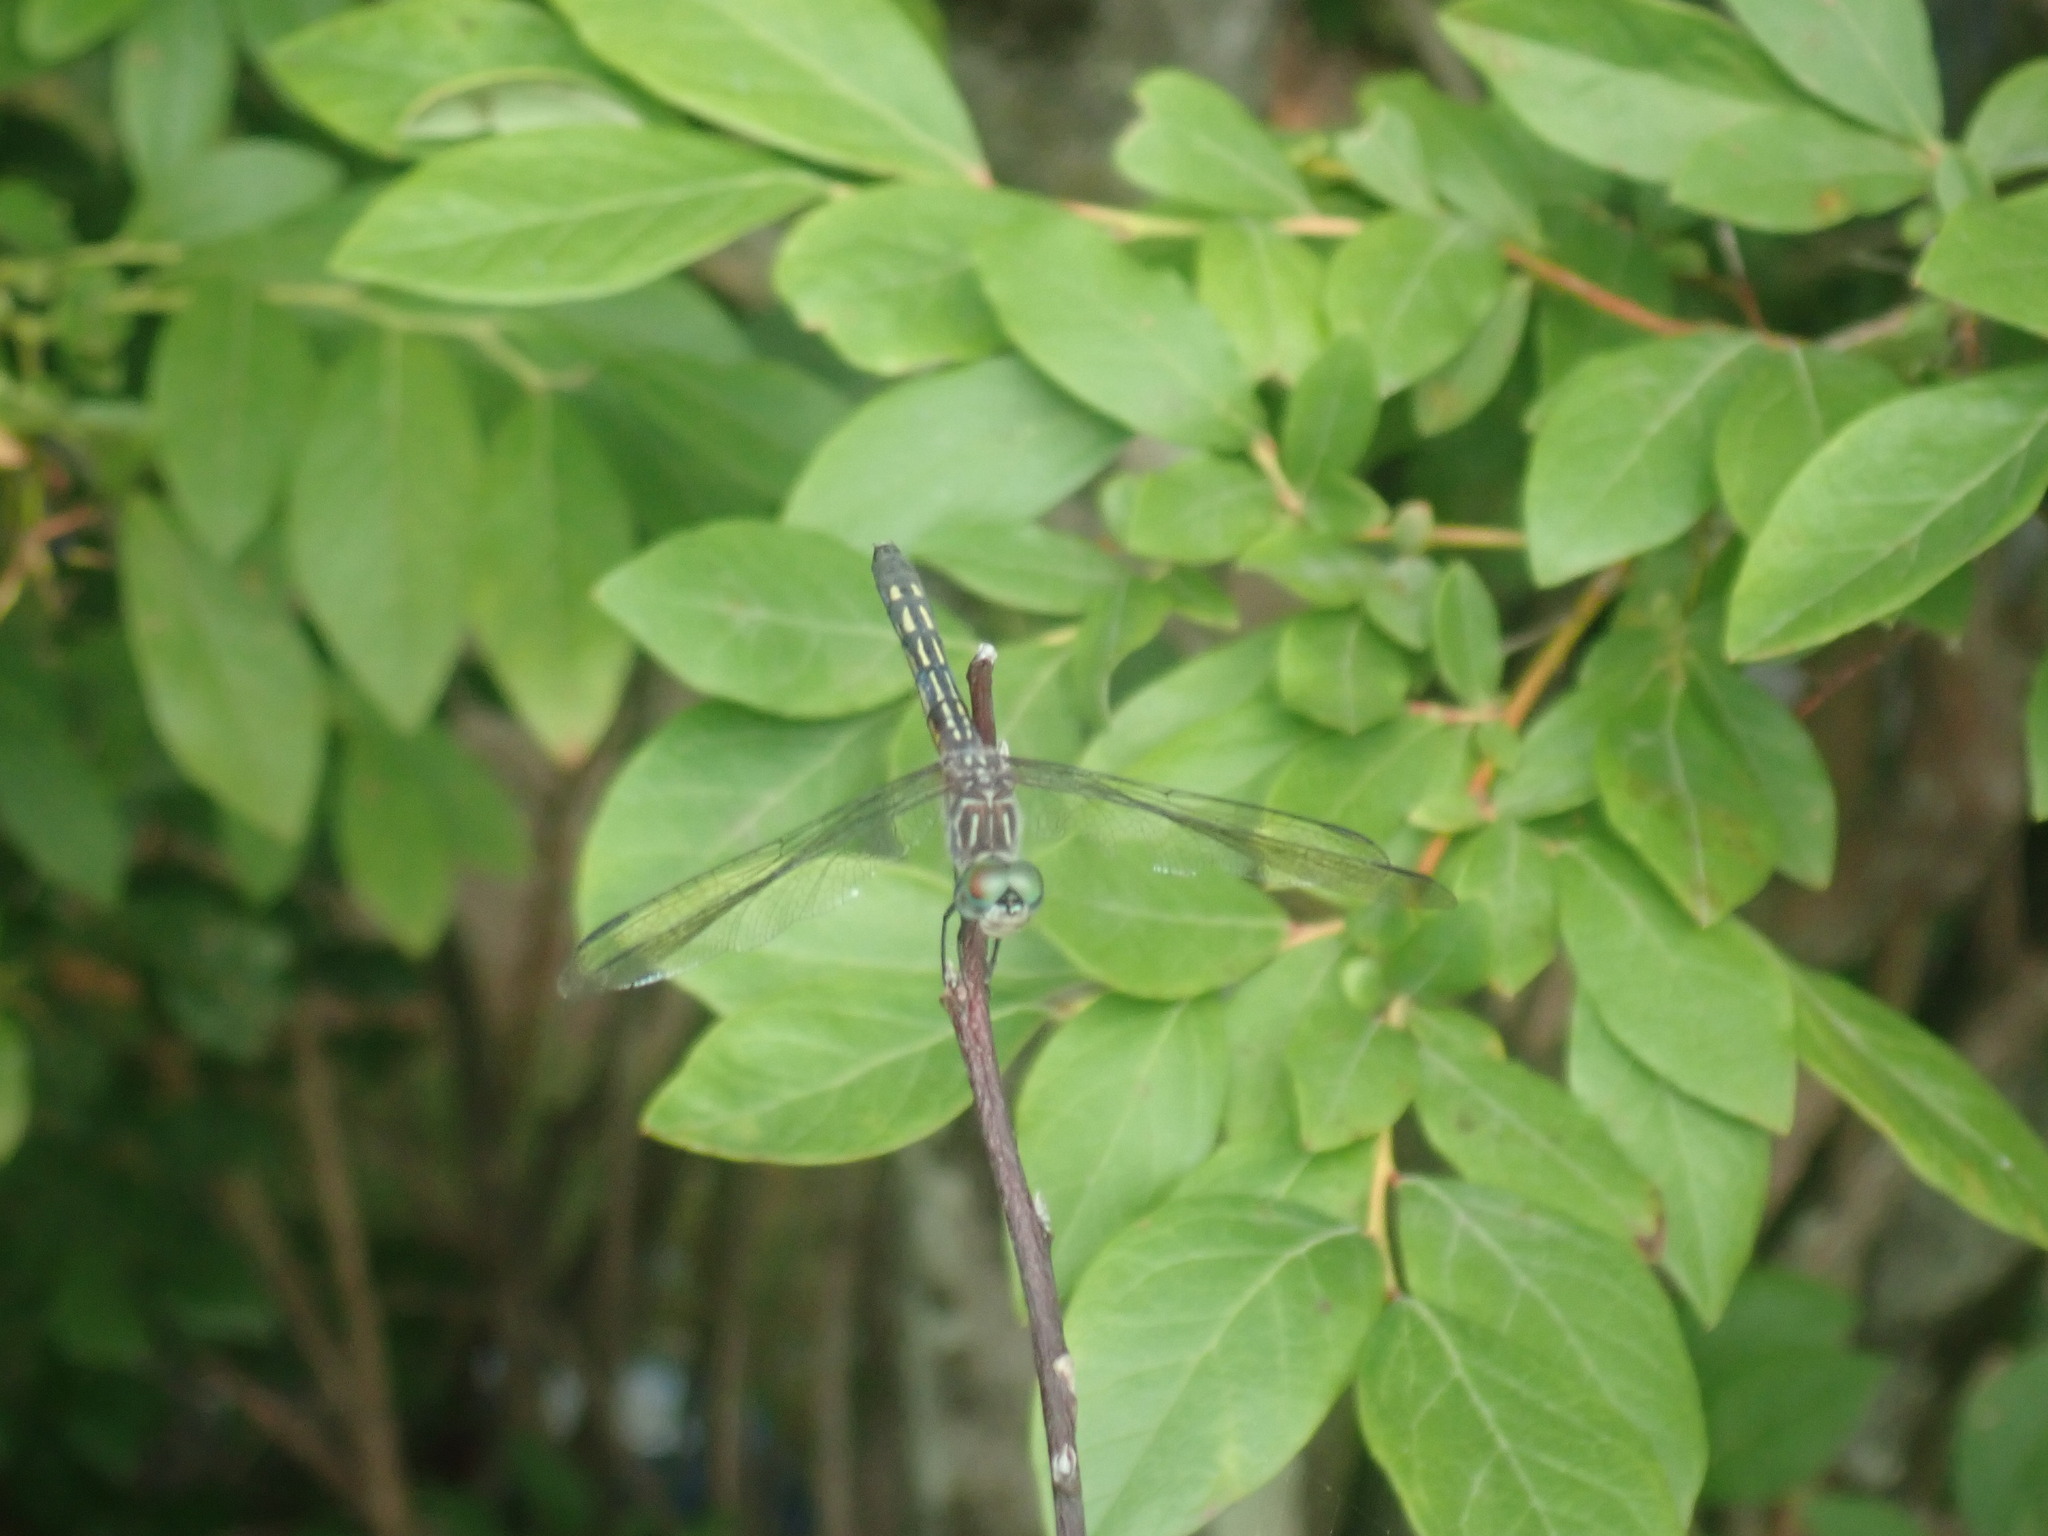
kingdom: Animalia
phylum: Arthropoda
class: Insecta
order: Odonata
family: Libellulidae
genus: Pachydiplax
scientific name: Pachydiplax longipennis
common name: Blue dasher
